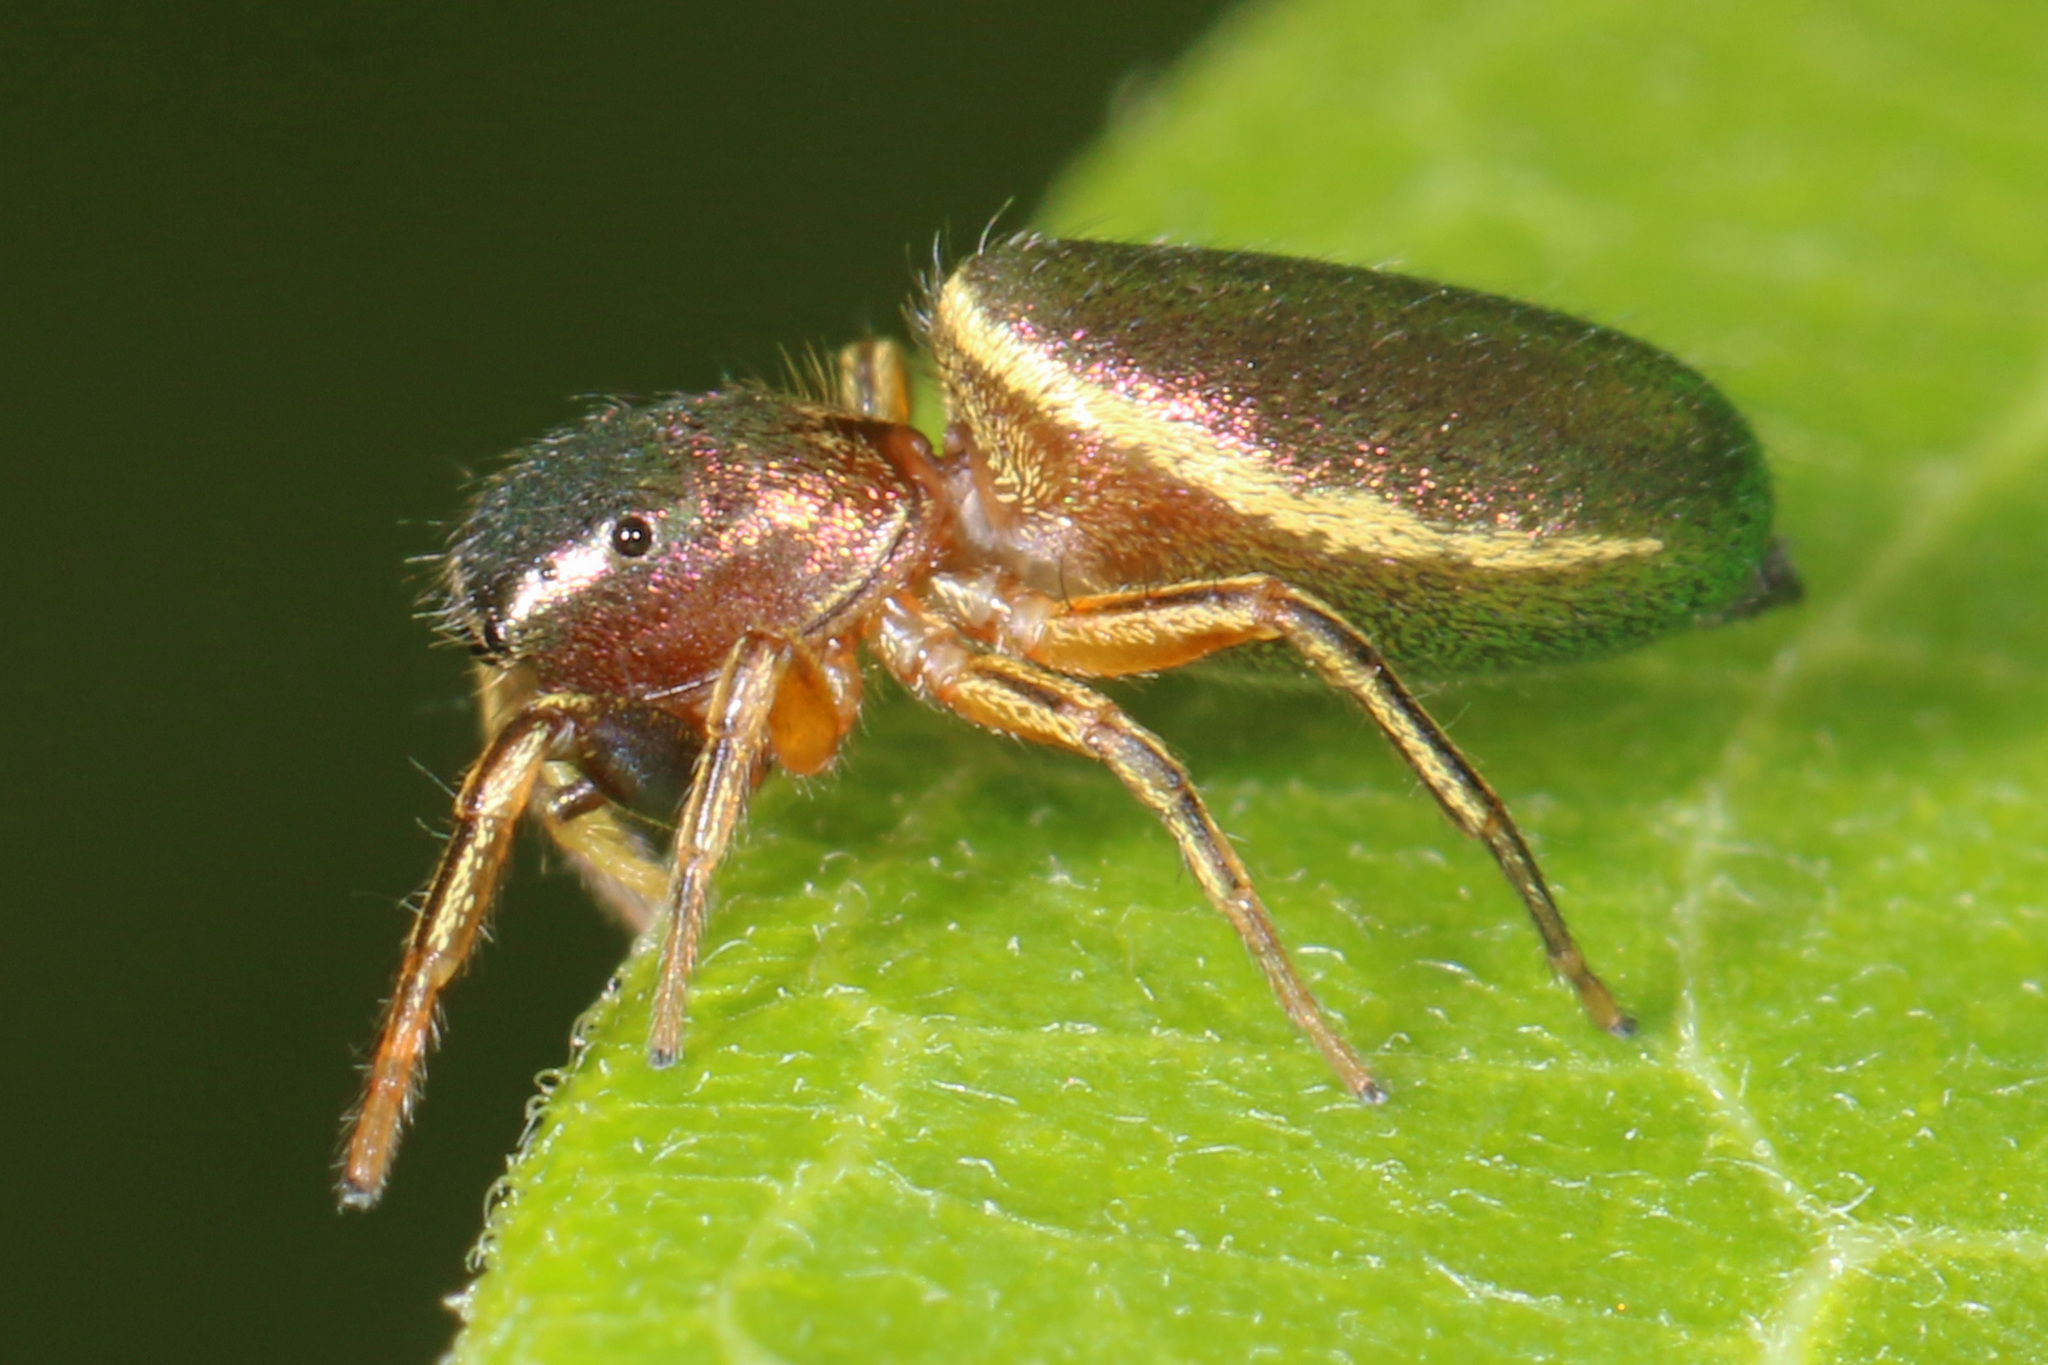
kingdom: Animalia
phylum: Arthropoda
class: Arachnida
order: Araneae
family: Salticidae
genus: Tutelina
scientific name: Tutelina elegans
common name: Thin-spined jumping spider
